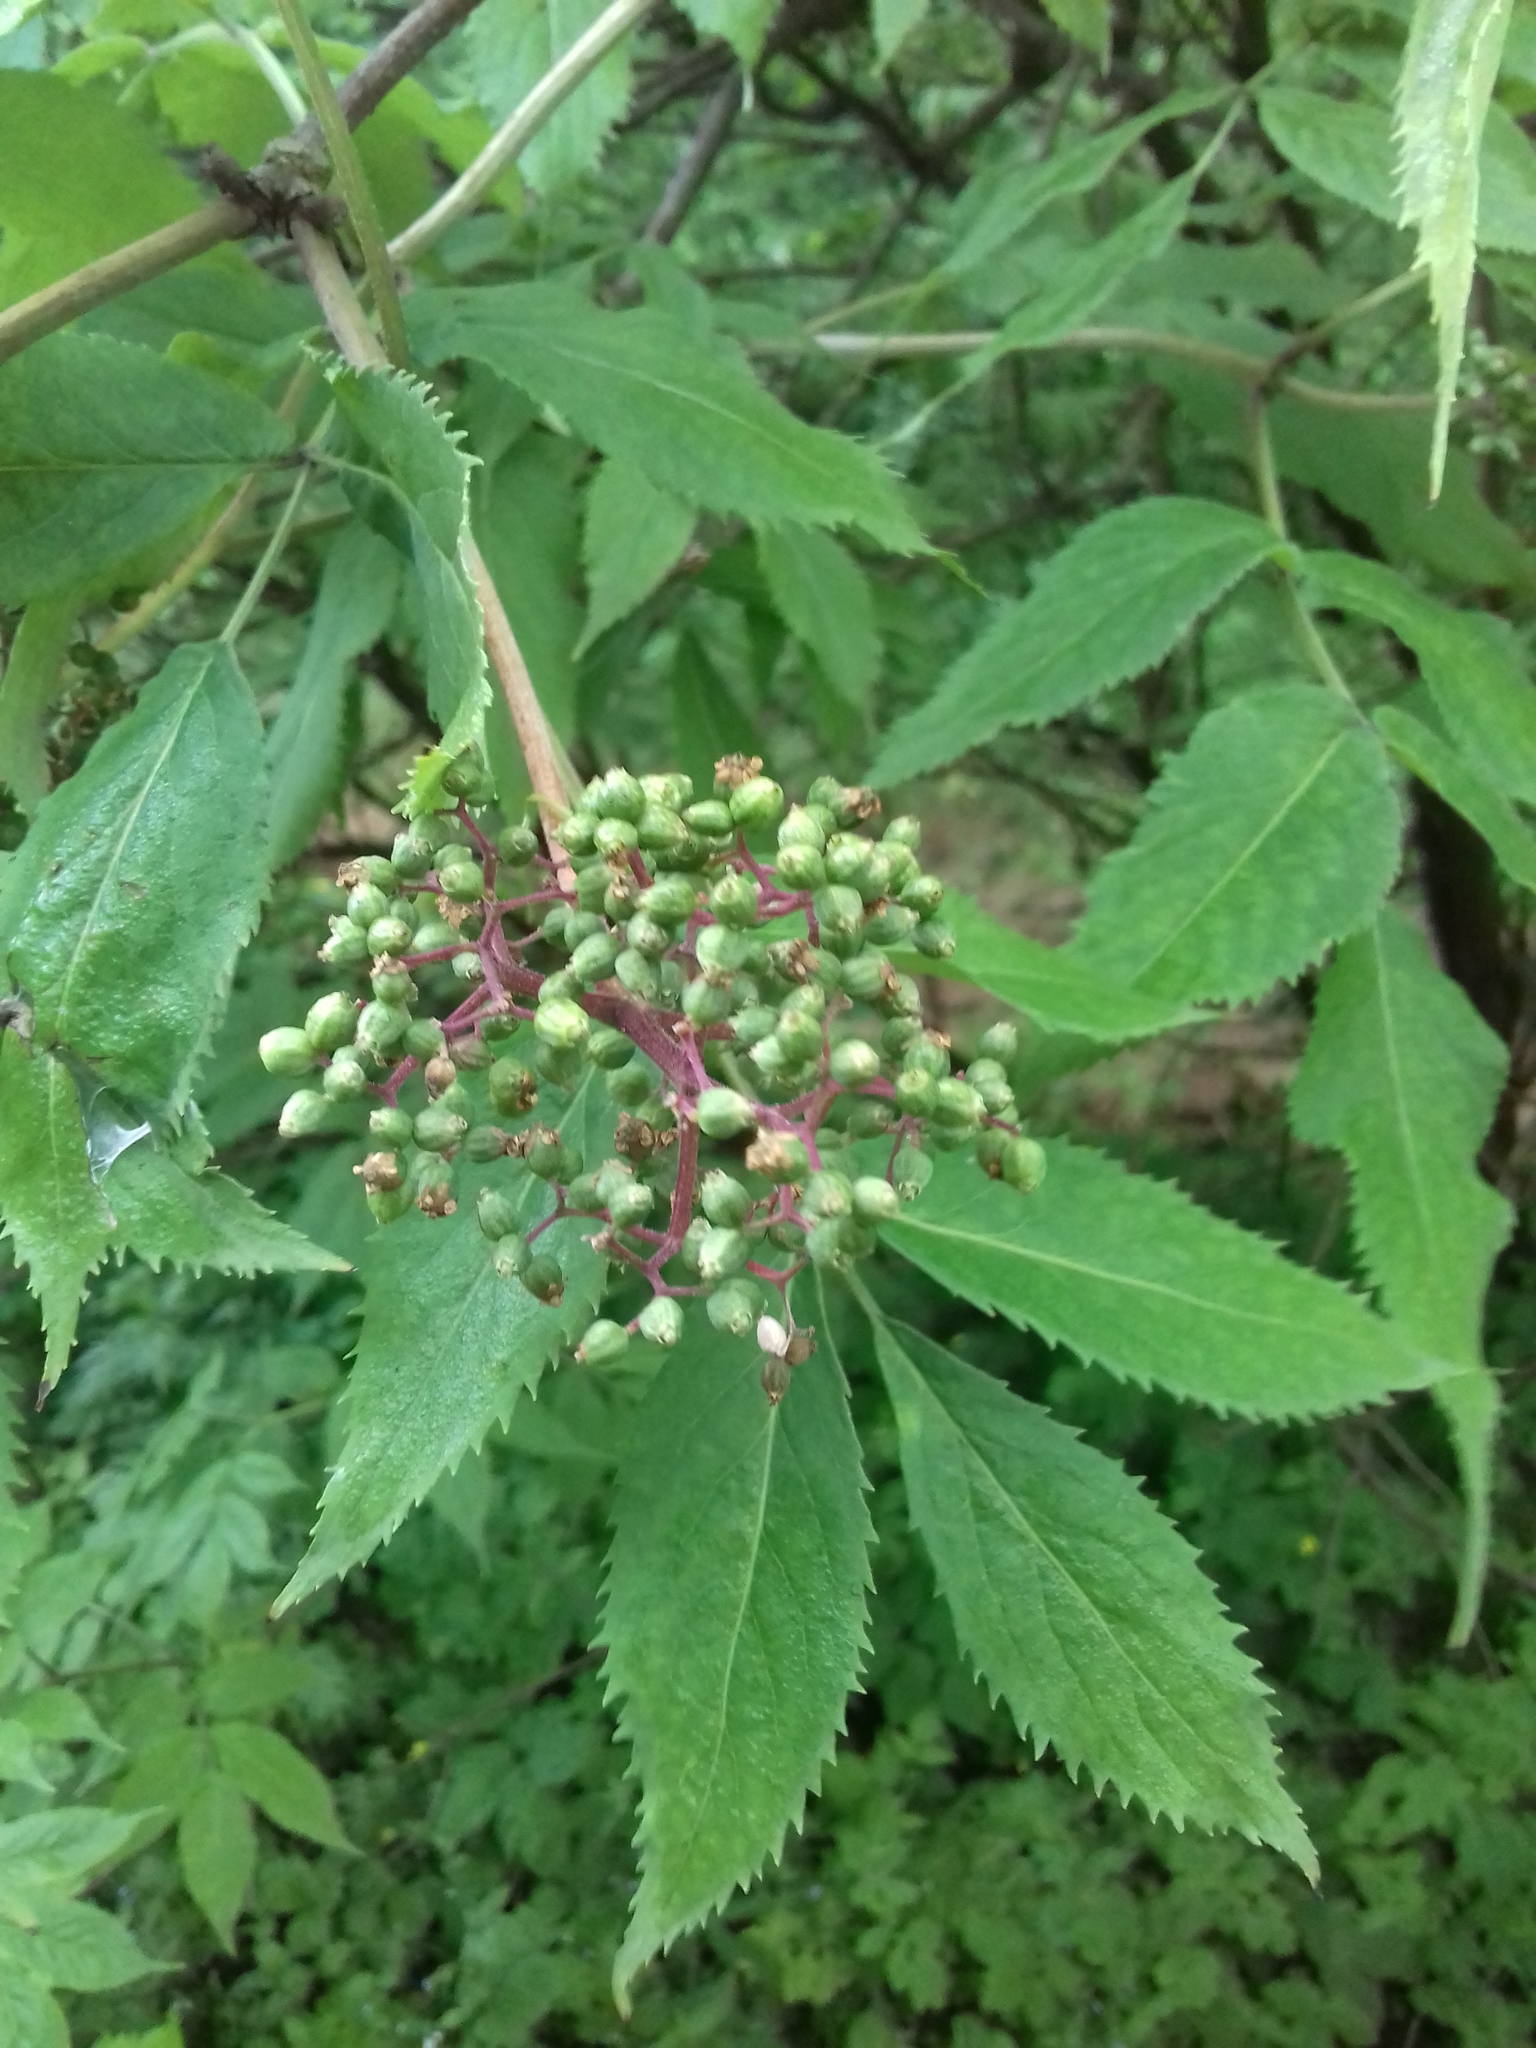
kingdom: Plantae
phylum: Tracheophyta
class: Magnoliopsida
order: Dipsacales
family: Viburnaceae
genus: Sambucus
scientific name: Sambucus racemosa
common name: Red-berried elder
